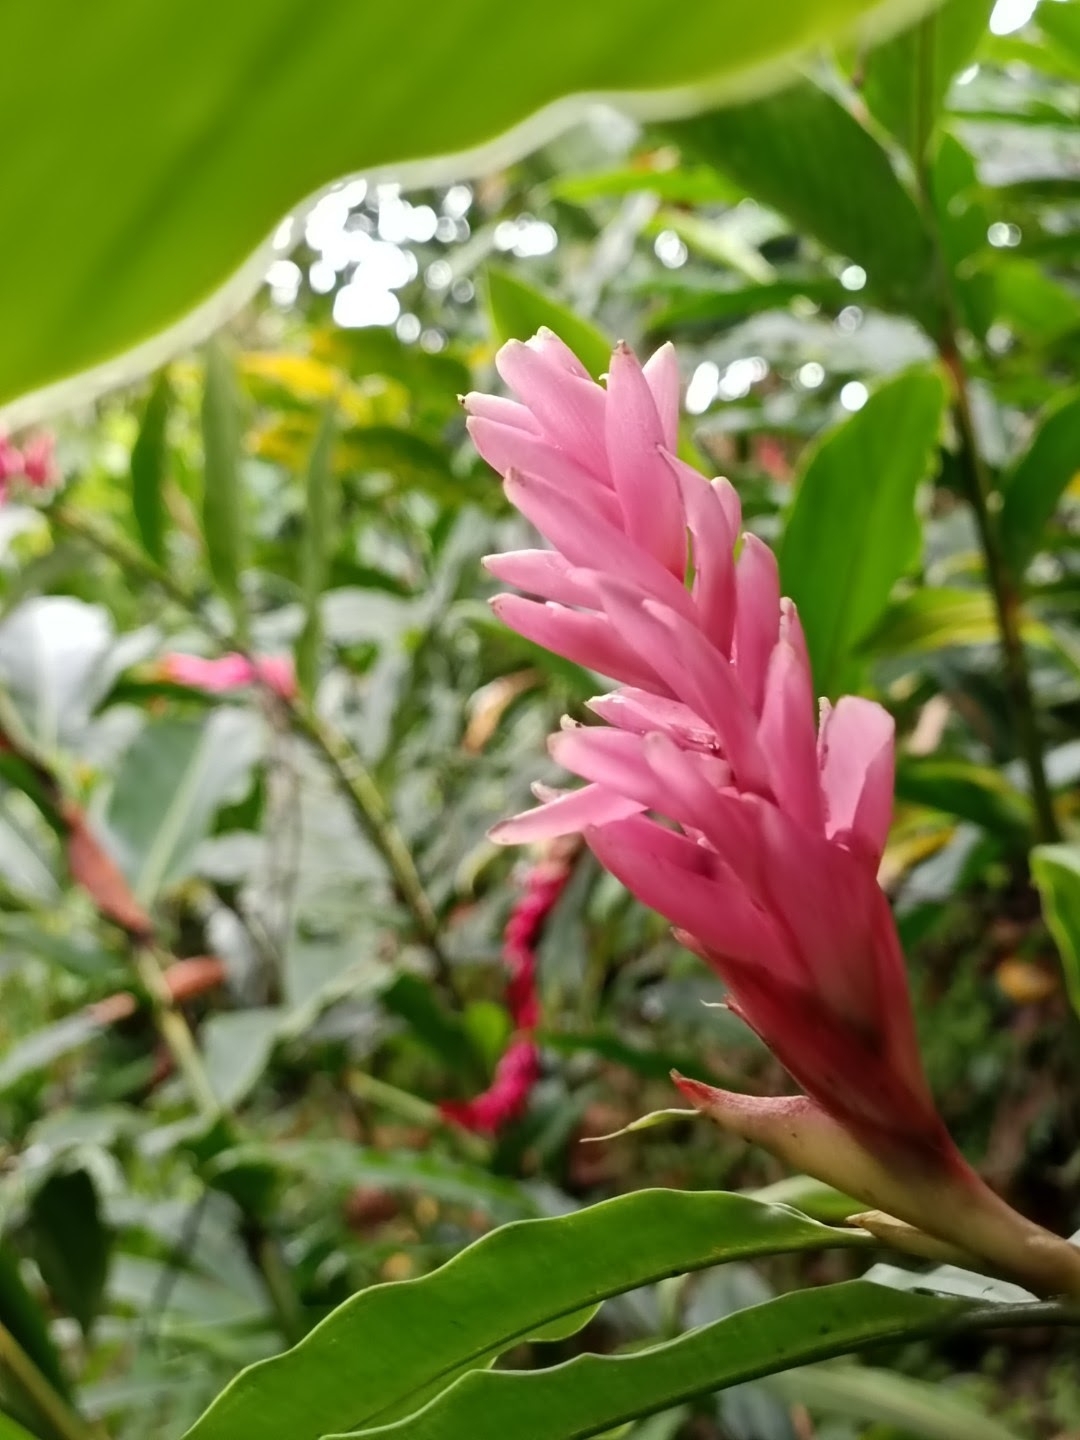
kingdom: Plantae
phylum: Tracheophyta
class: Liliopsida
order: Zingiberales
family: Zingiberaceae
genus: Alpinia
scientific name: Alpinia purpurata
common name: Red ginger
